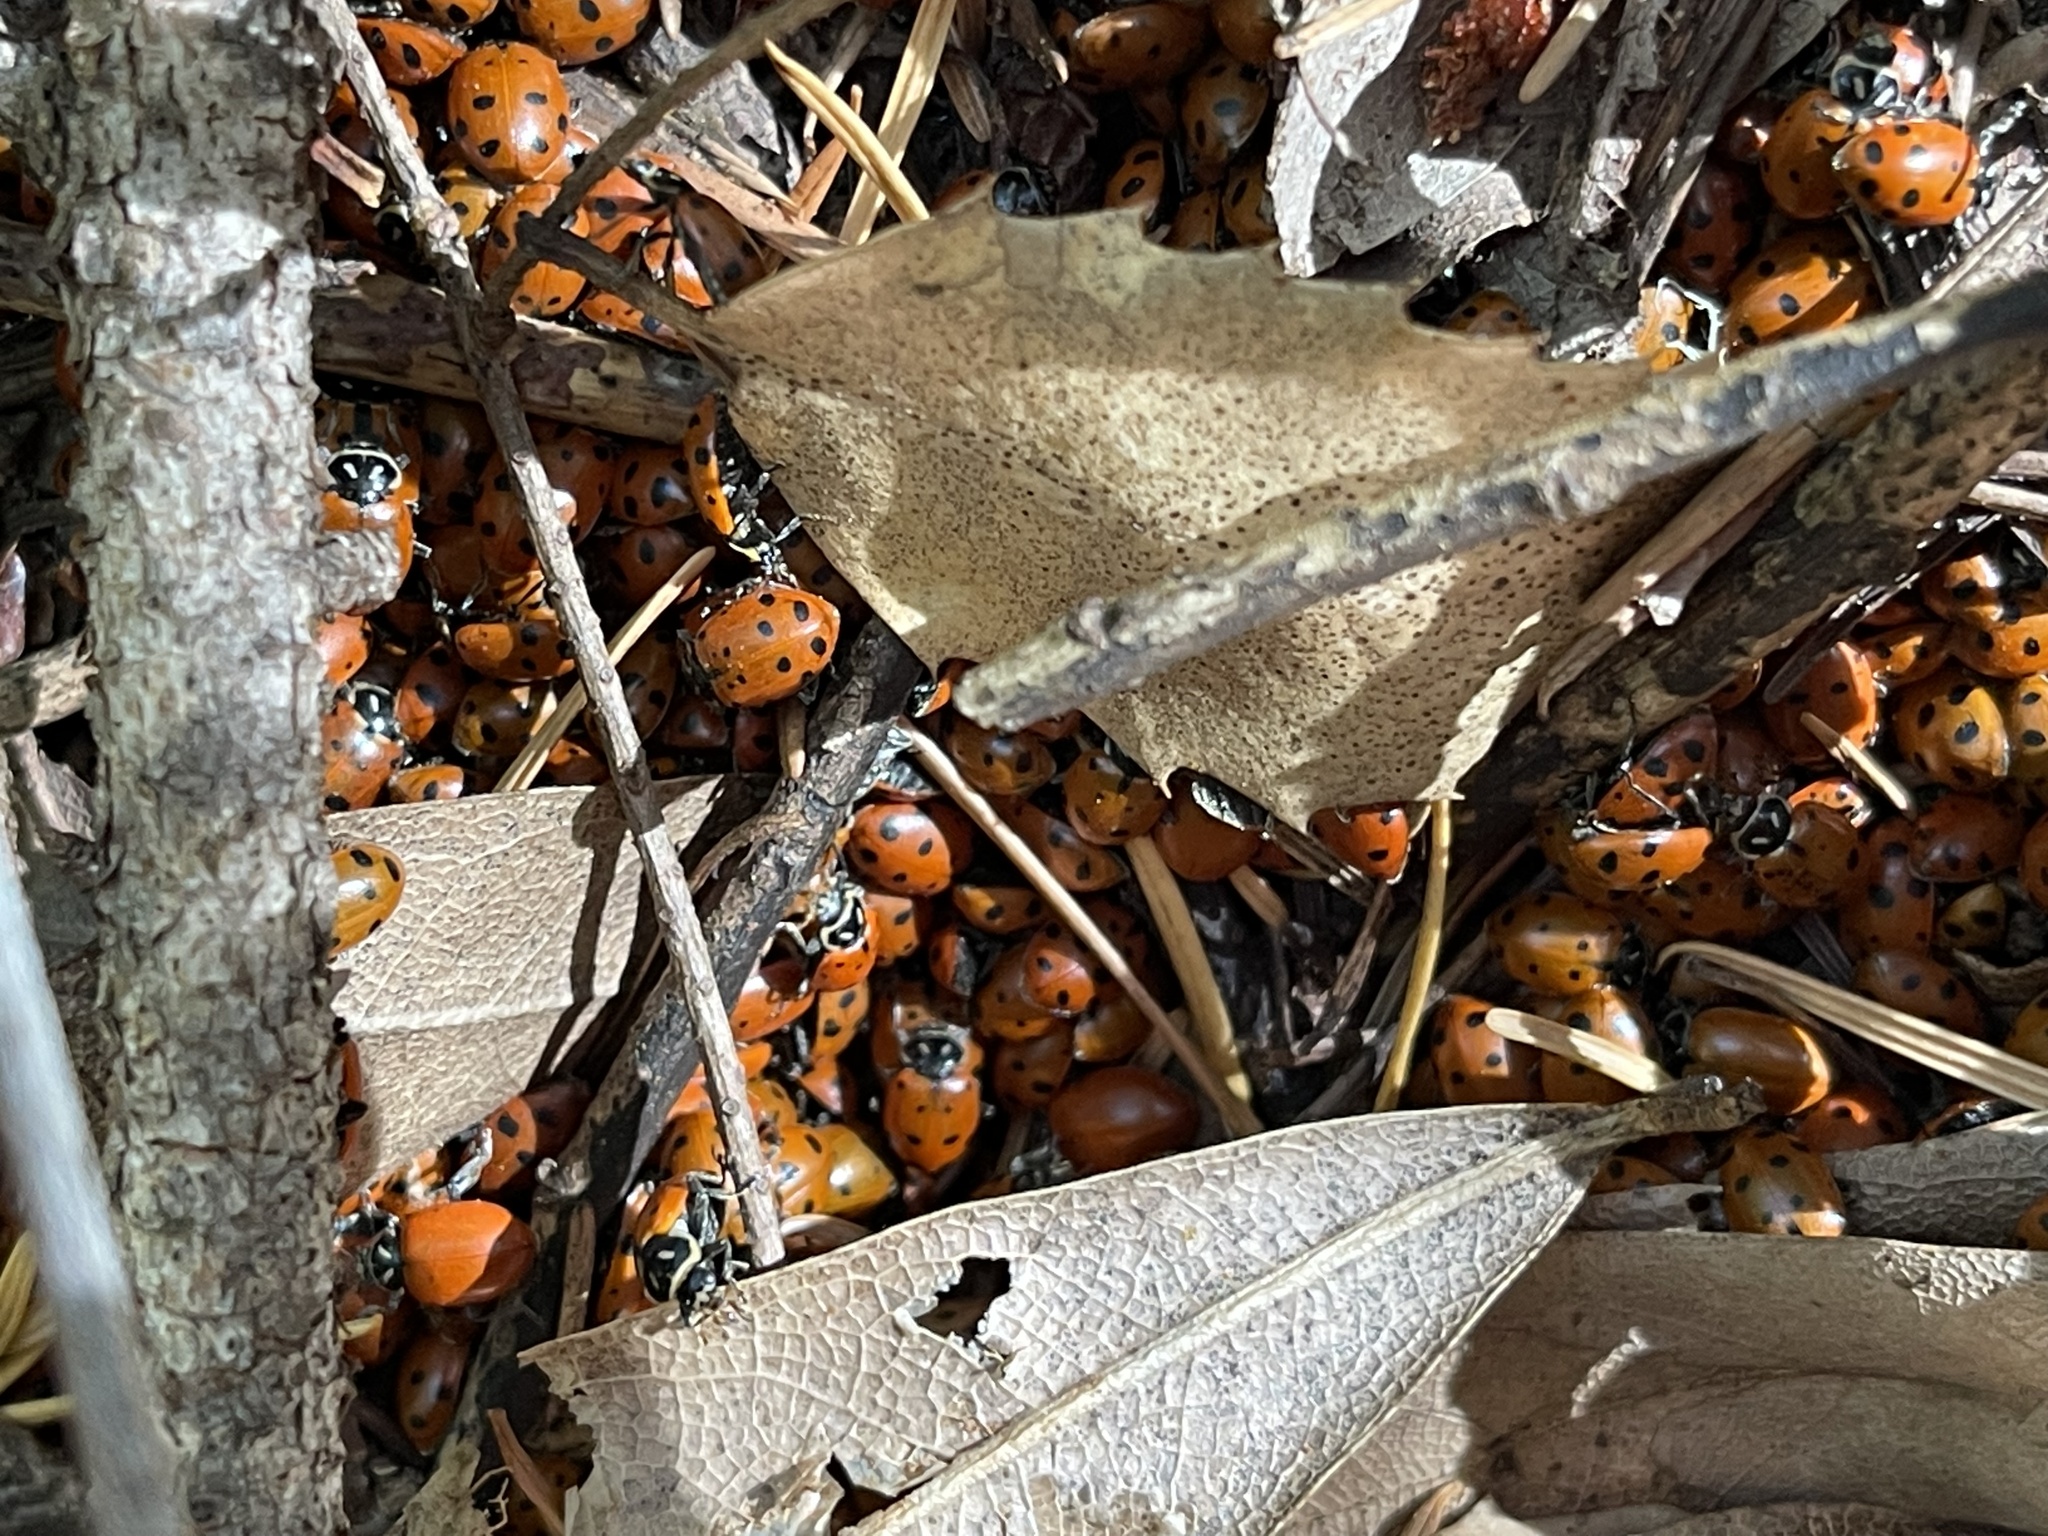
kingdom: Animalia
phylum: Arthropoda
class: Insecta
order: Coleoptera
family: Coccinellidae
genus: Hippodamia
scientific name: Hippodamia convergens
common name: Convergent lady beetle
